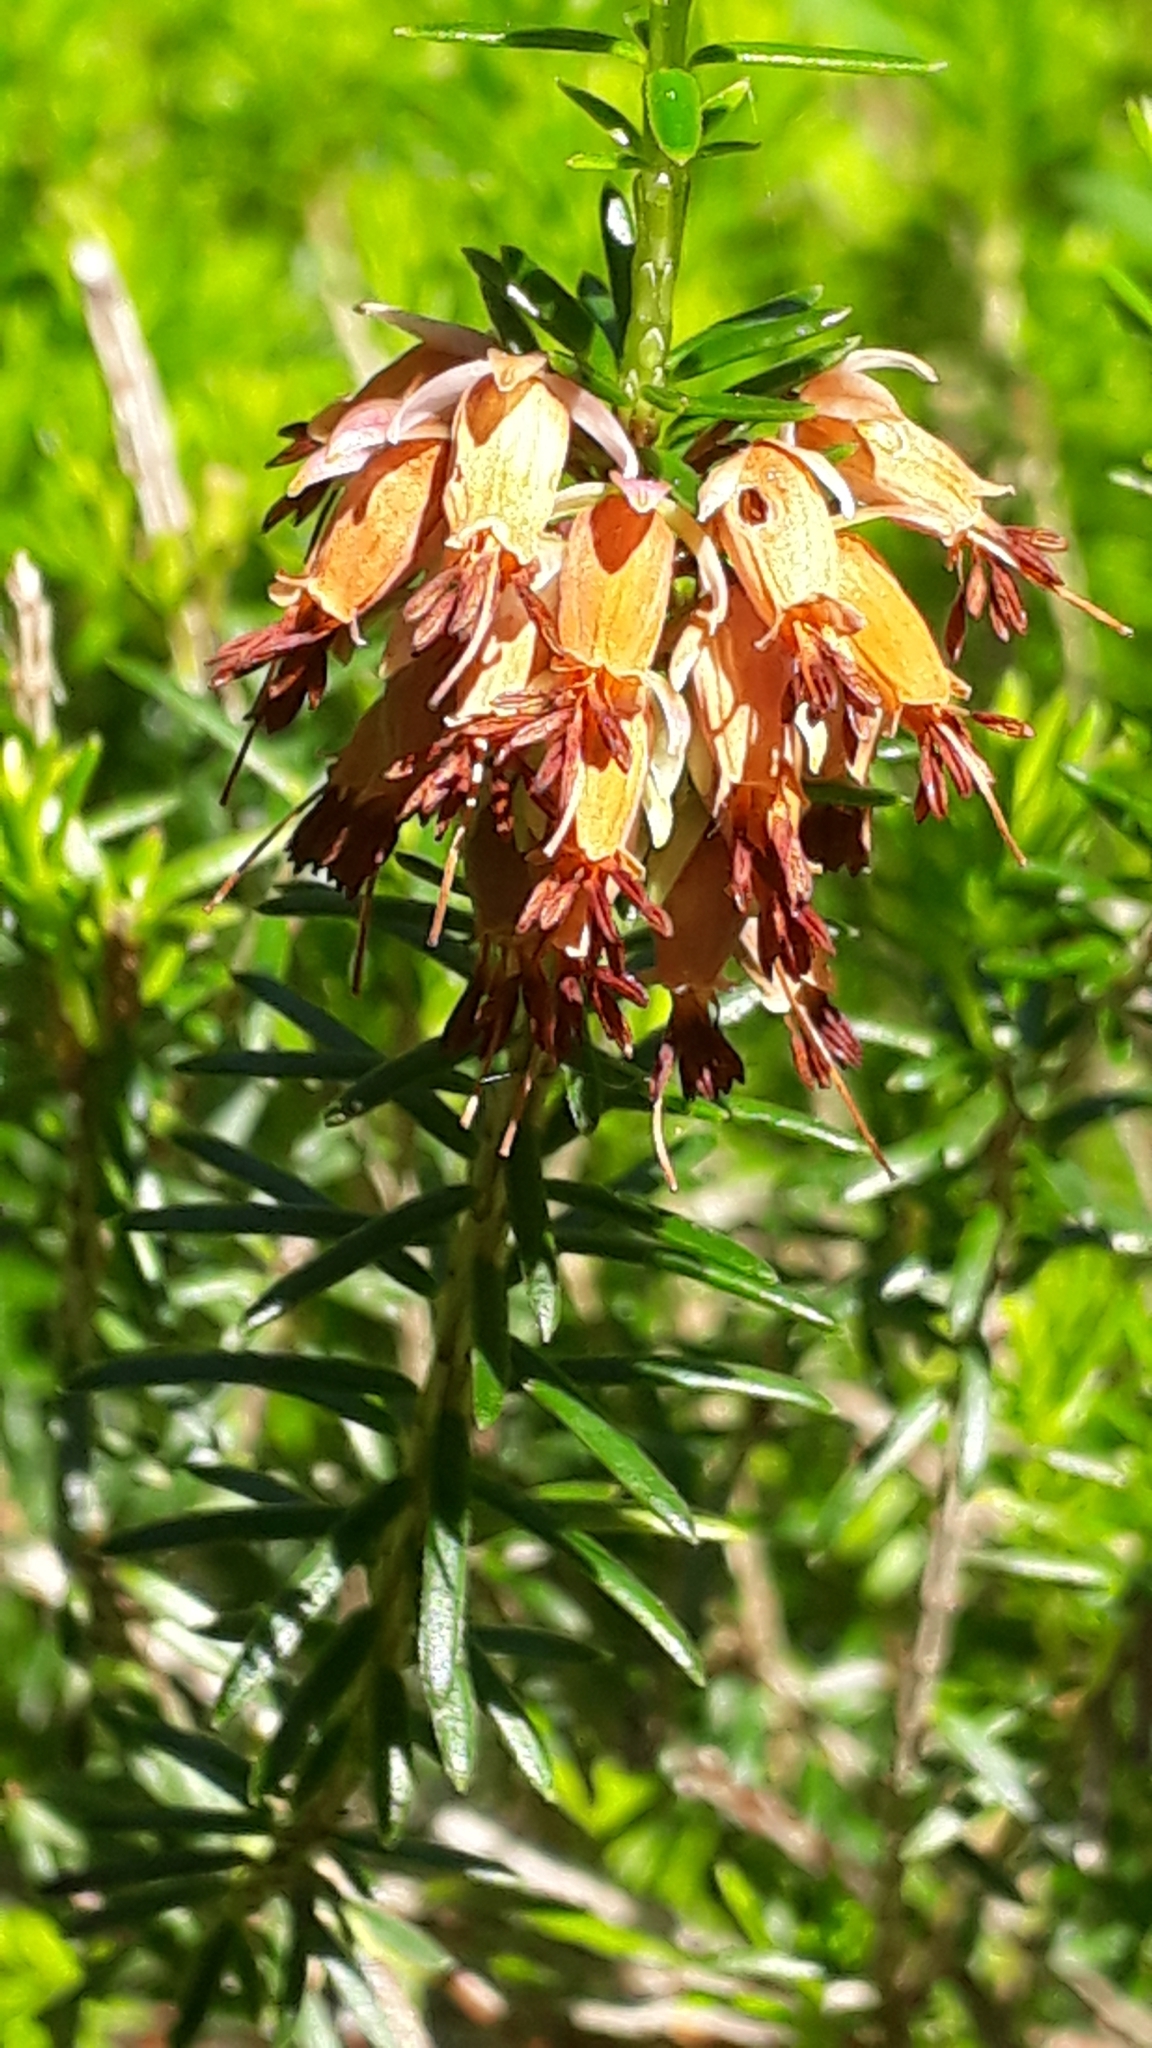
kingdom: Plantae
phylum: Tracheophyta
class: Magnoliopsida
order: Ericales
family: Ericaceae
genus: Erica
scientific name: Erica carnea
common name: Winter heath
